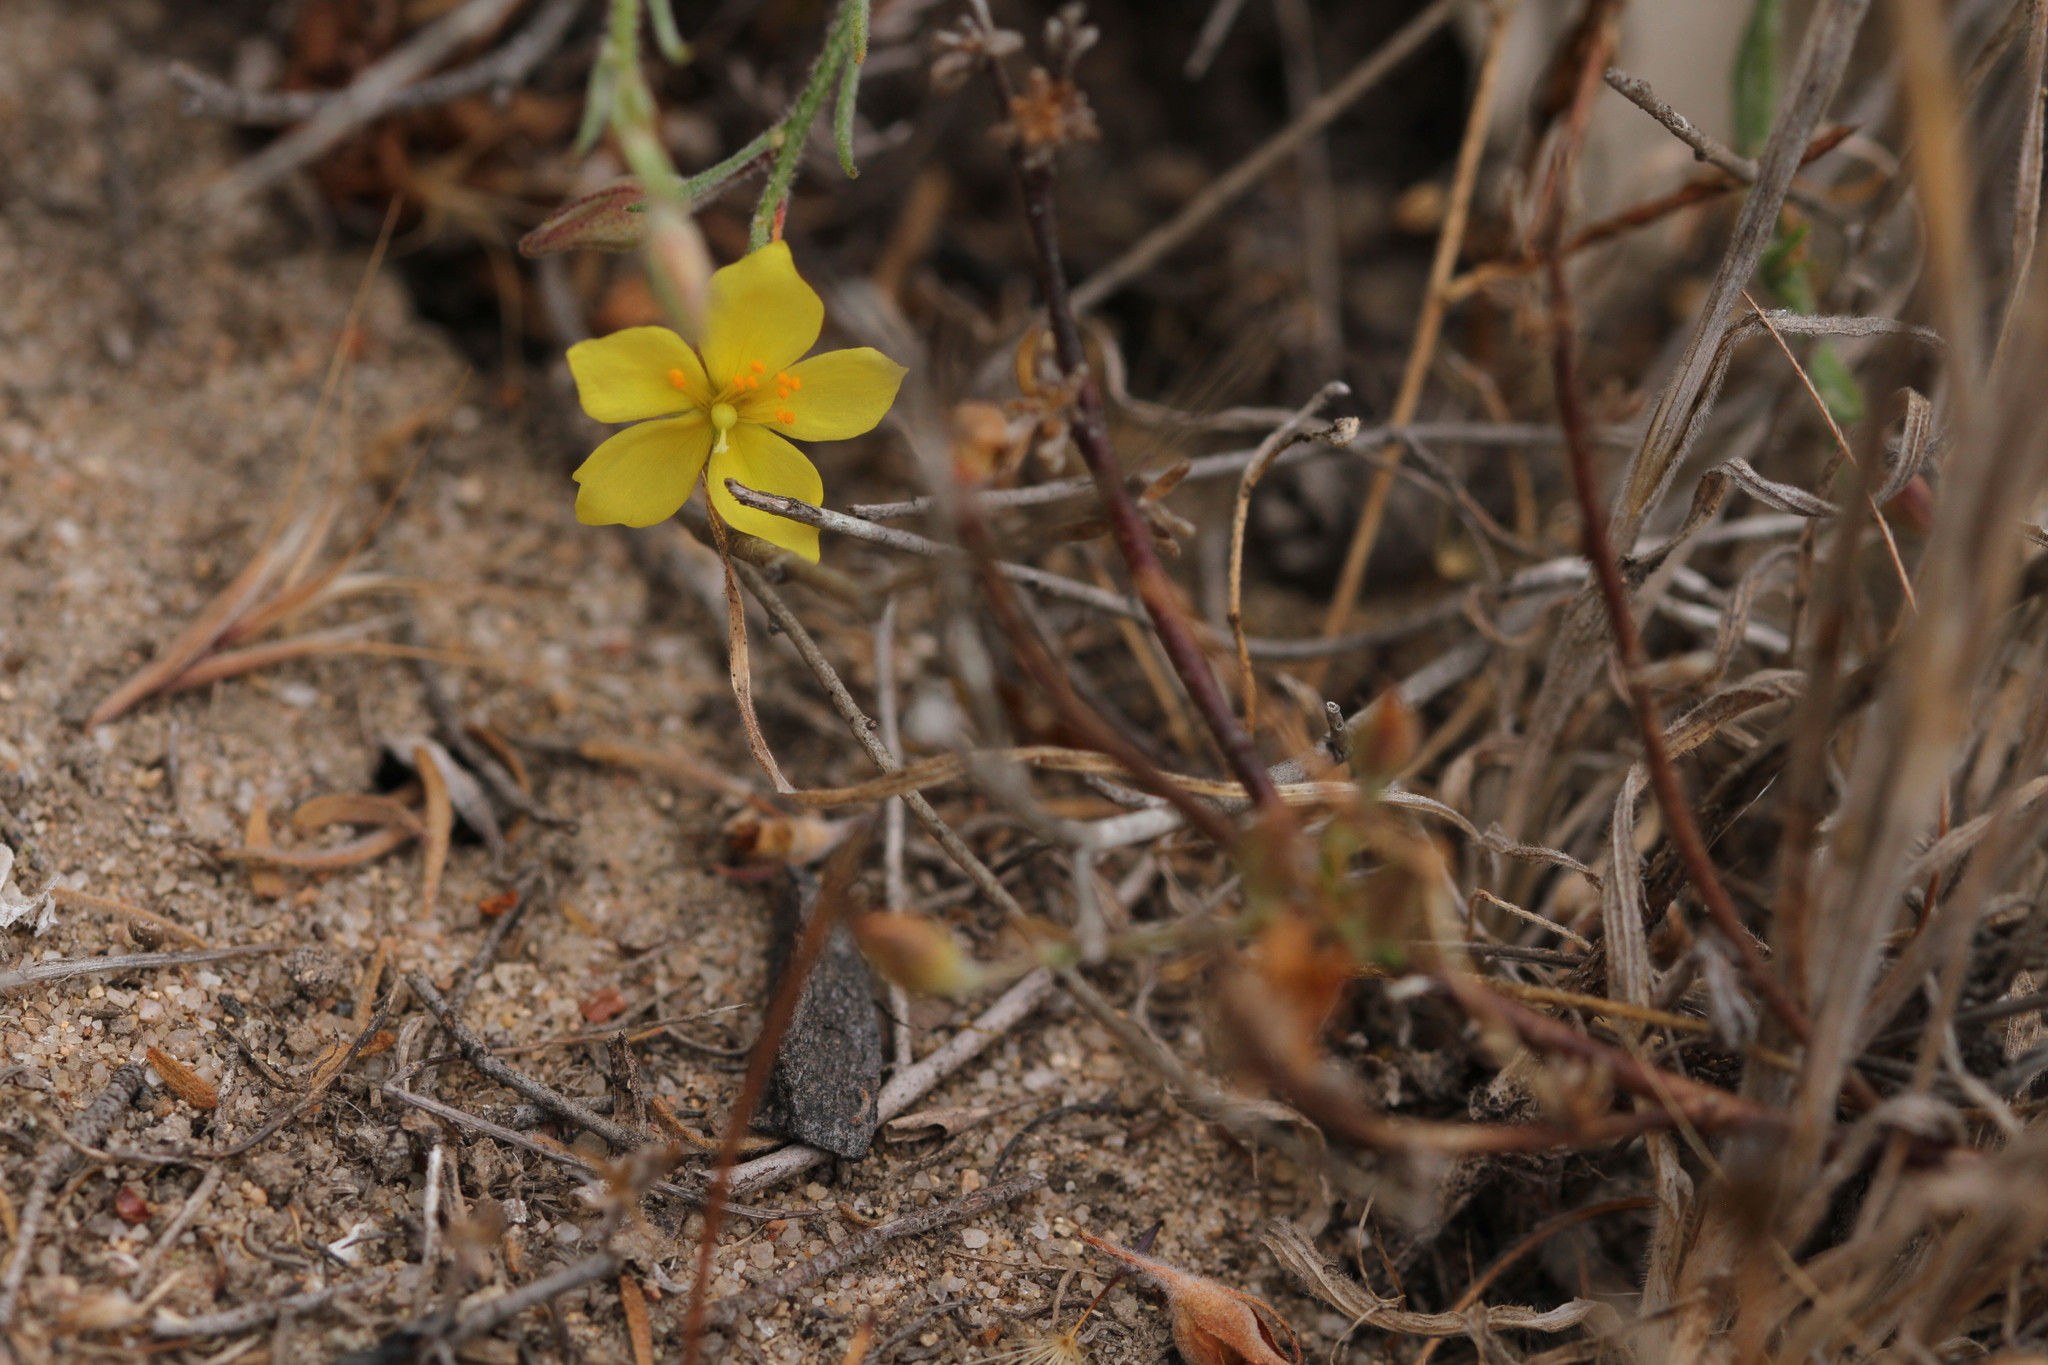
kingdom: Plantae
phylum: Tracheophyta
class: Magnoliopsida
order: Malvales
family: Cistaceae
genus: Crocanthemum
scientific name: Crocanthemum scoparium
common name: Broom-rose
